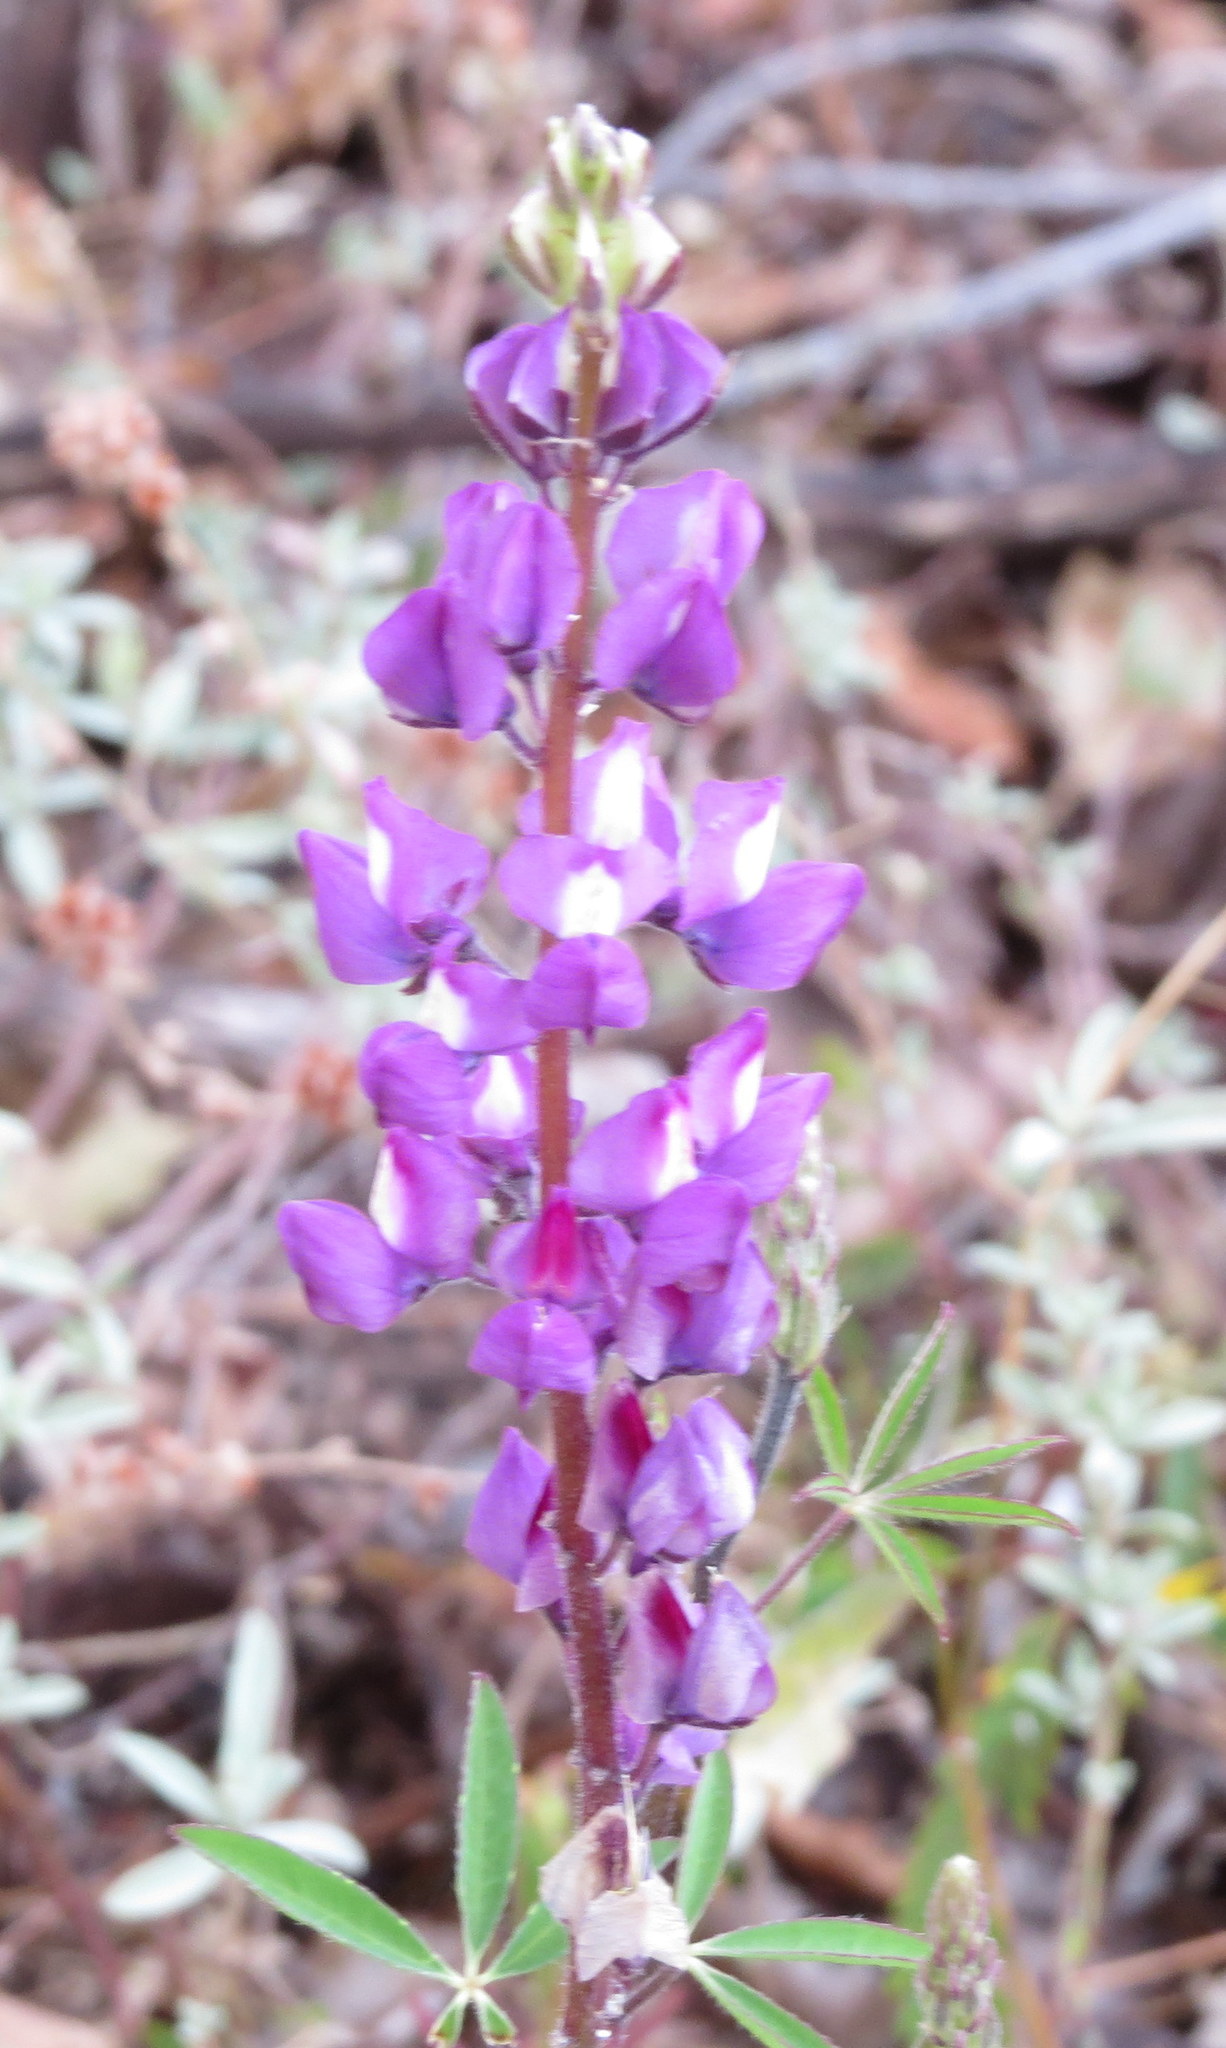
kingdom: Plantae
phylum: Tracheophyta
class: Magnoliopsida
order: Fabales
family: Fabaceae
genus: Lupinus
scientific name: Lupinus succulentus
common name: Arroyo lupine
